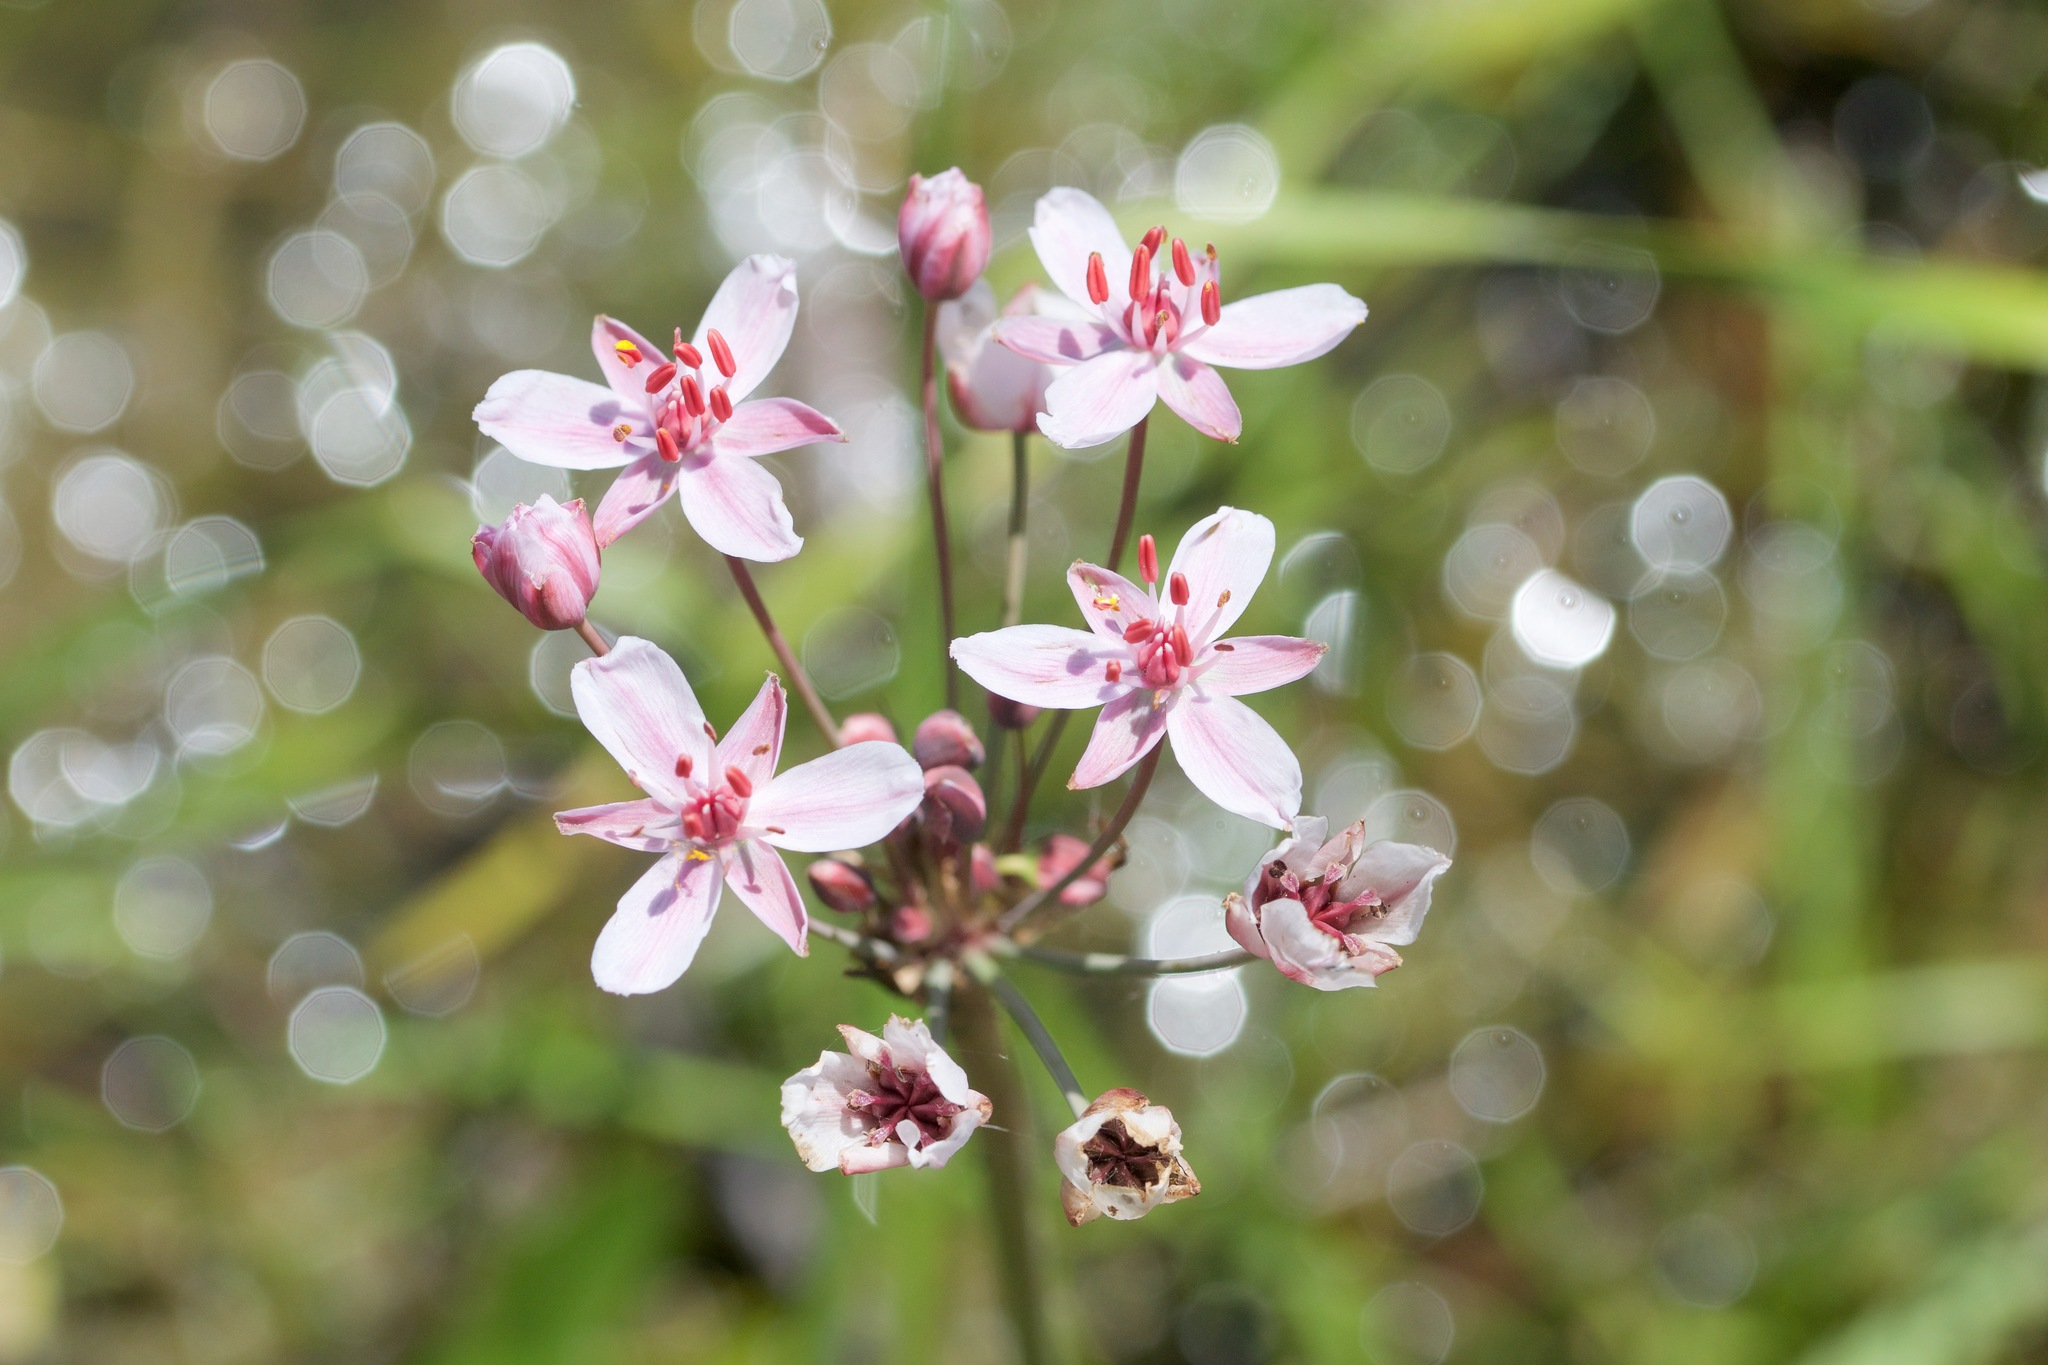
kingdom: Plantae
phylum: Tracheophyta
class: Liliopsida
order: Alismatales
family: Butomaceae
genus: Butomus
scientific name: Butomus umbellatus
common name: Flowering-rush
